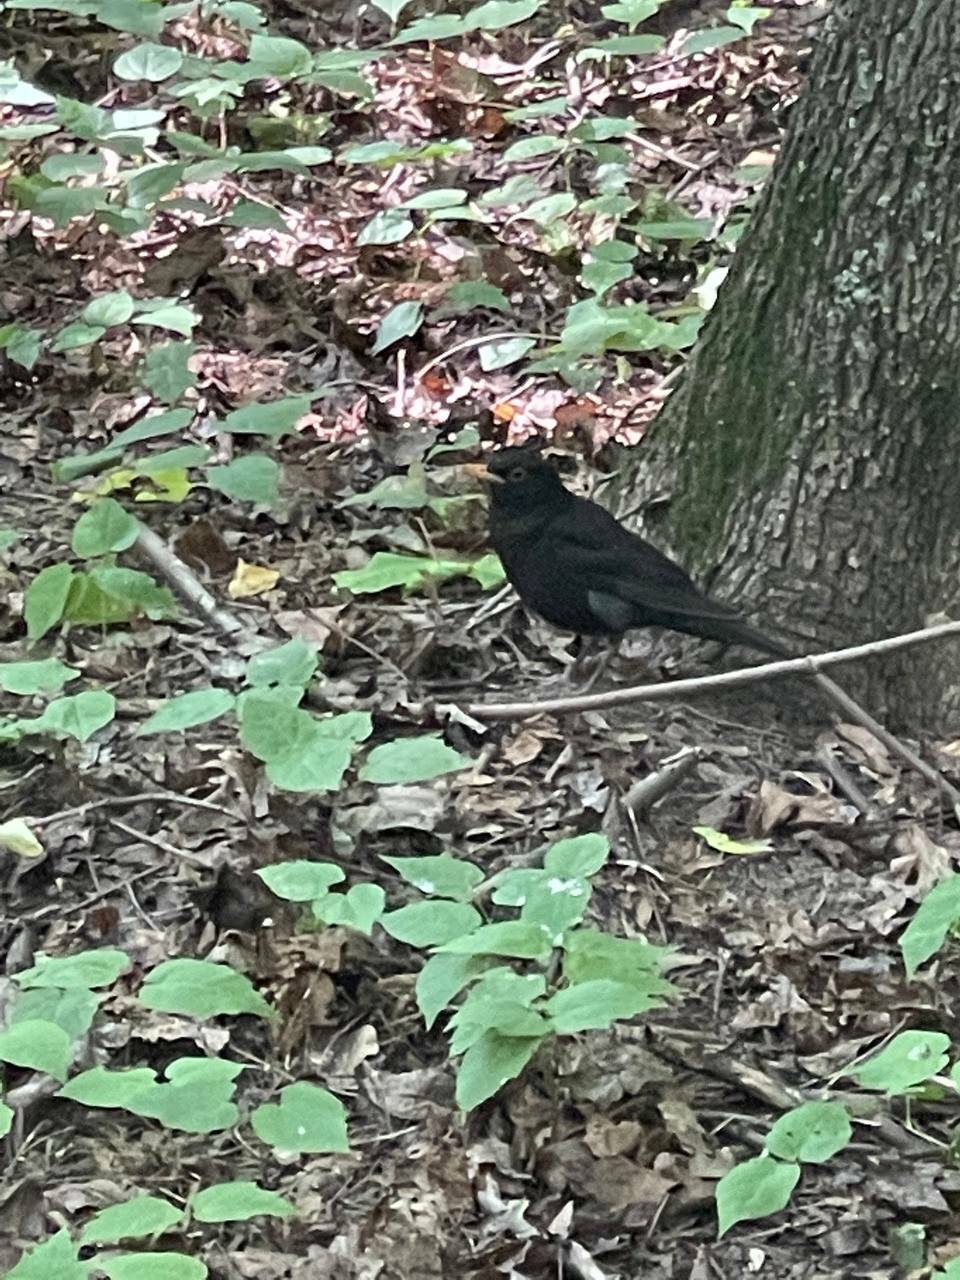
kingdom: Animalia
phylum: Chordata
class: Aves
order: Passeriformes
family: Turdidae
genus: Turdus
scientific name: Turdus merula
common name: Common blackbird
